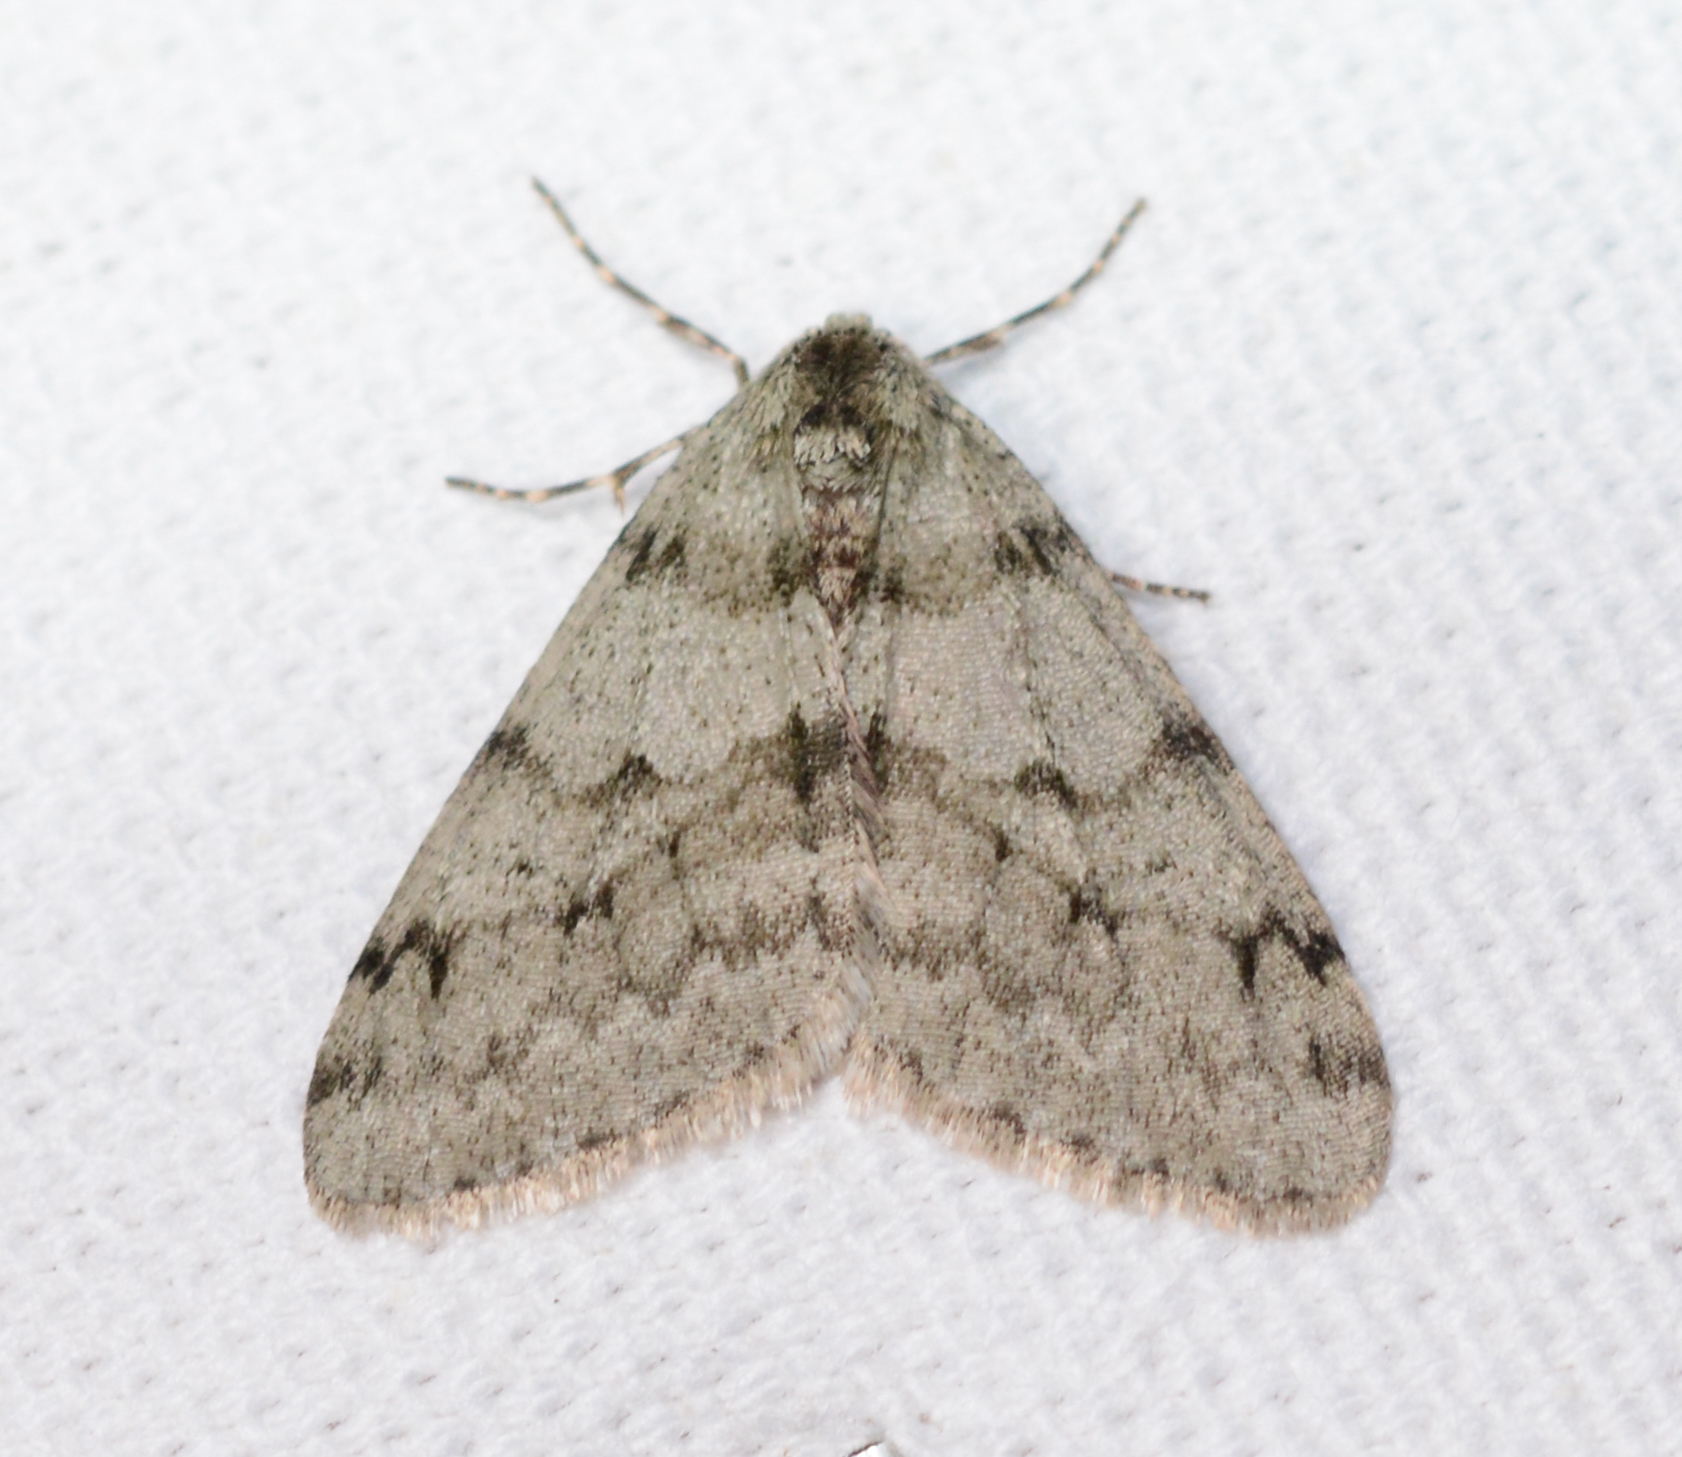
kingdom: Animalia
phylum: Arthropoda
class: Insecta
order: Lepidoptera
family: Geometridae
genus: Phigalia
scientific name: Phigalia strigataria
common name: Small phigalia
